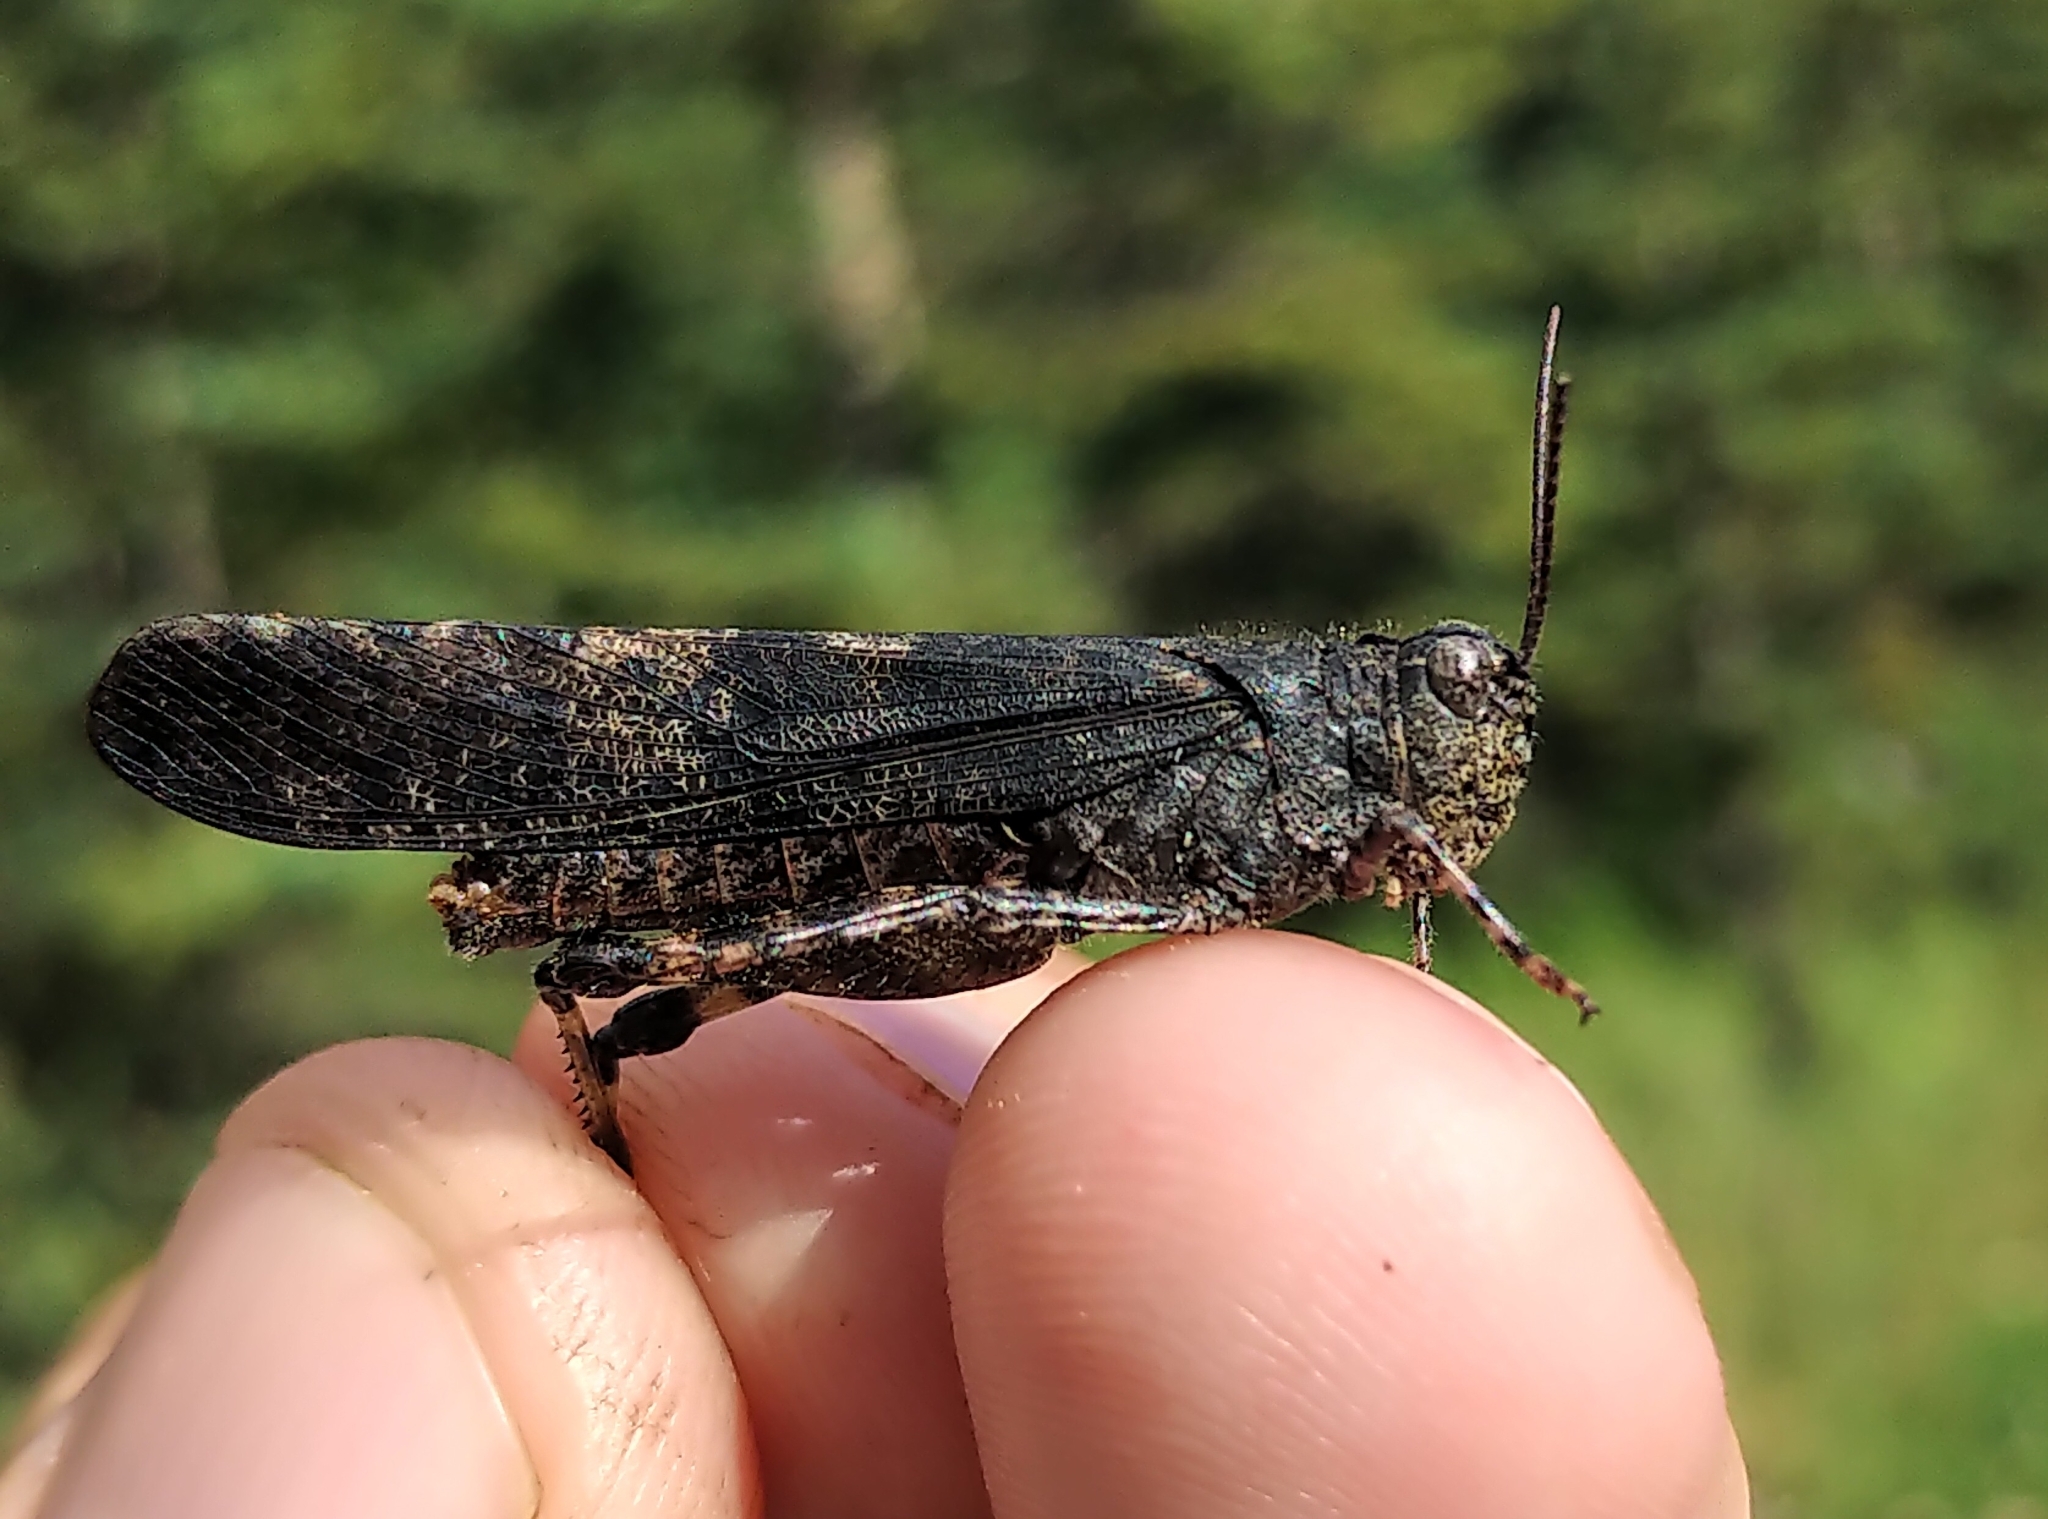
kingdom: Animalia
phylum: Arthropoda
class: Insecta
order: Orthoptera
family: Acrididae
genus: Trimerotropis
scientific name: Trimerotropis verruculata
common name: Crackling forest grasshopper
